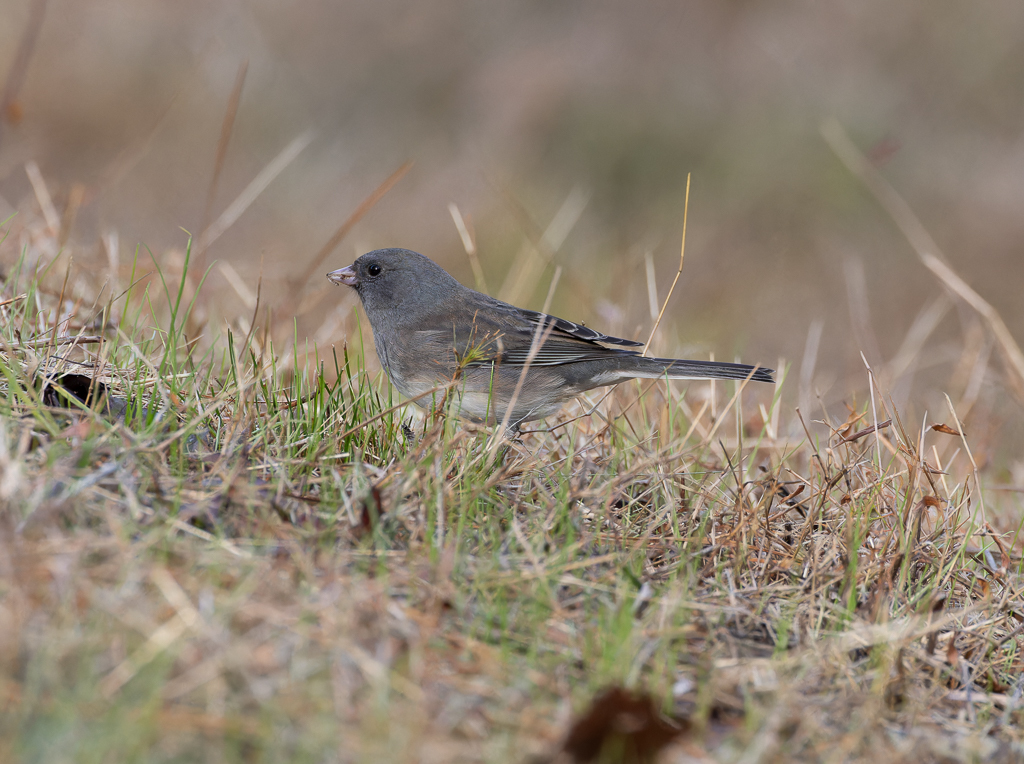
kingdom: Animalia
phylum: Chordata
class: Aves
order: Passeriformes
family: Passerellidae
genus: Junco
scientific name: Junco hyemalis
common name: Dark-eyed junco
